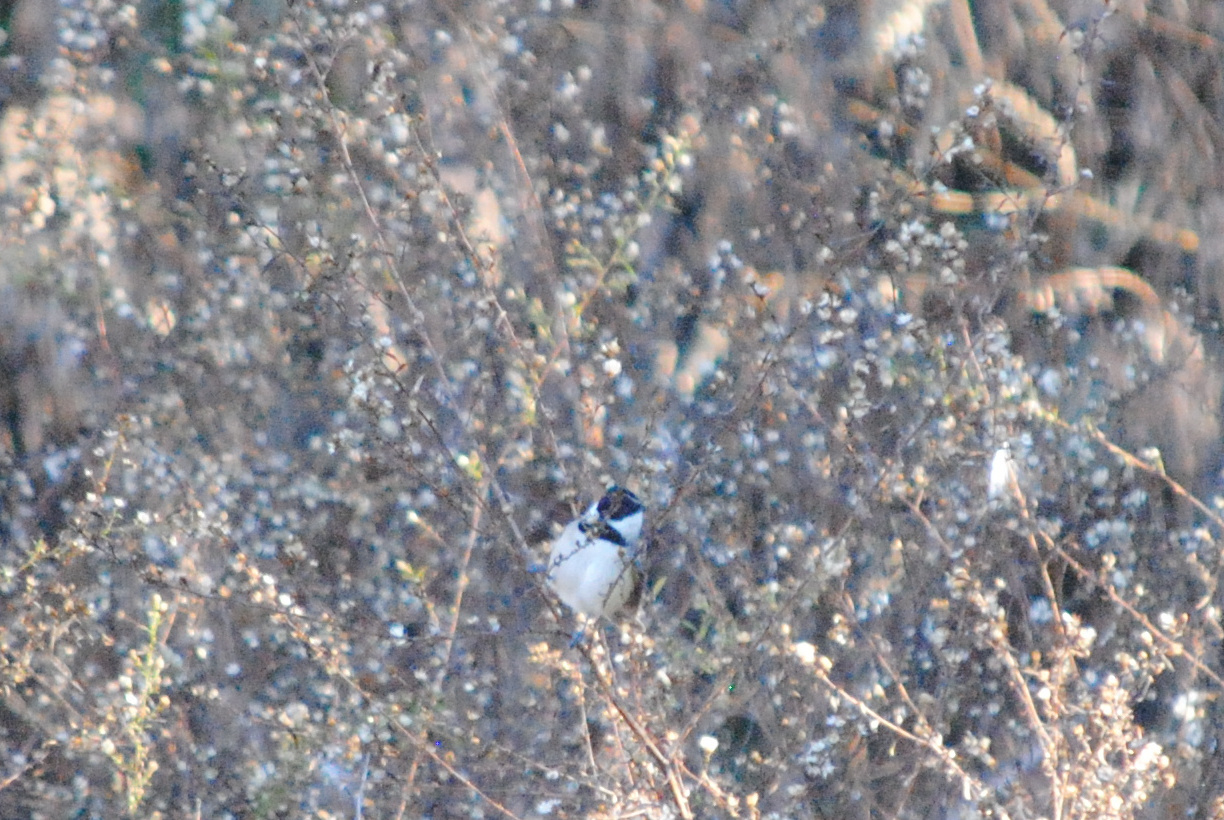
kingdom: Animalia
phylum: Chordata
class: Aves
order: Passeriformes
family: Paridae
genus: Poecile
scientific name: Poecile carolinensis
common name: Carolina chickadee
